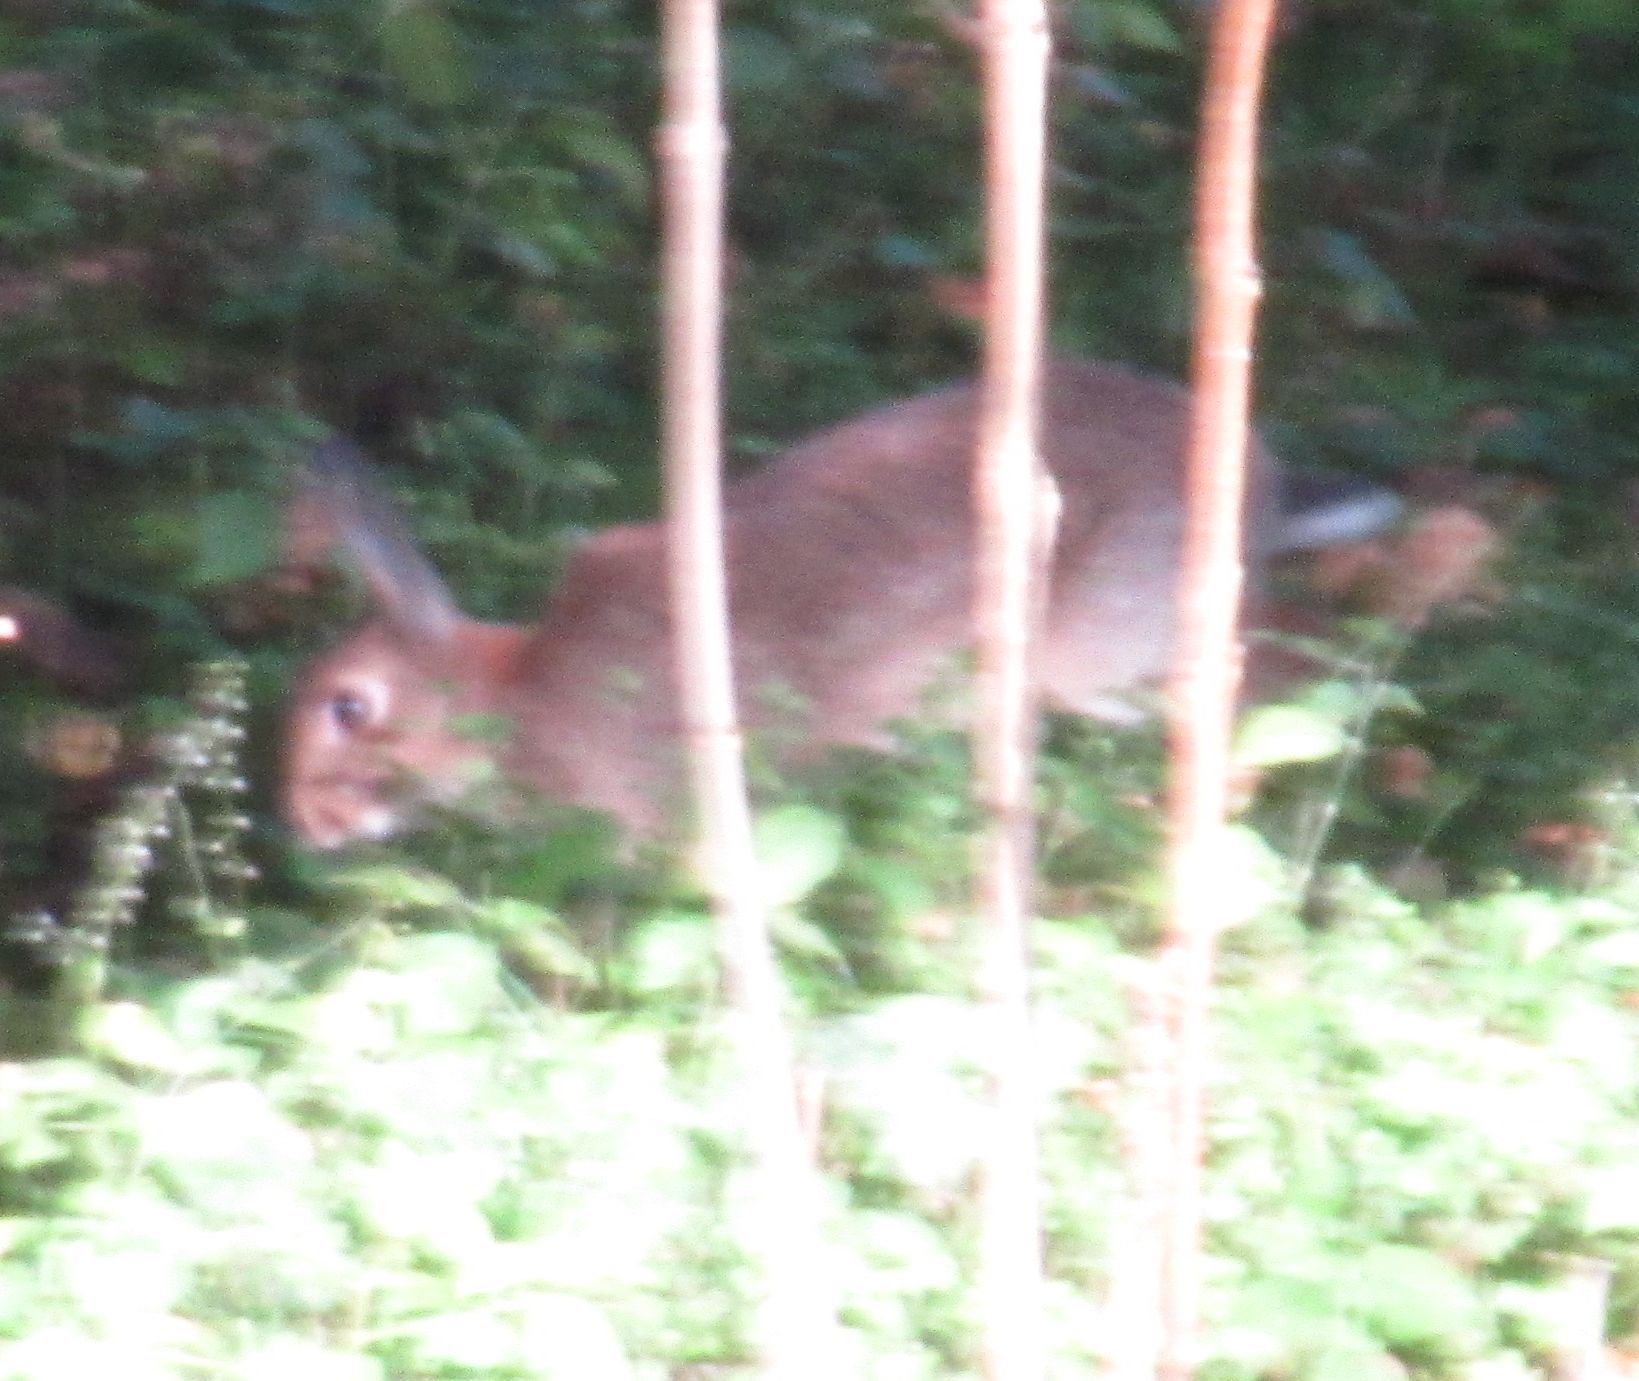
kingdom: Animalia
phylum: Chordata
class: Mammalia
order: Lagomorpha
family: Leporidae
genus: Oryctolagus
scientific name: Oryctolagus cuniculus
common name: European rabbit
